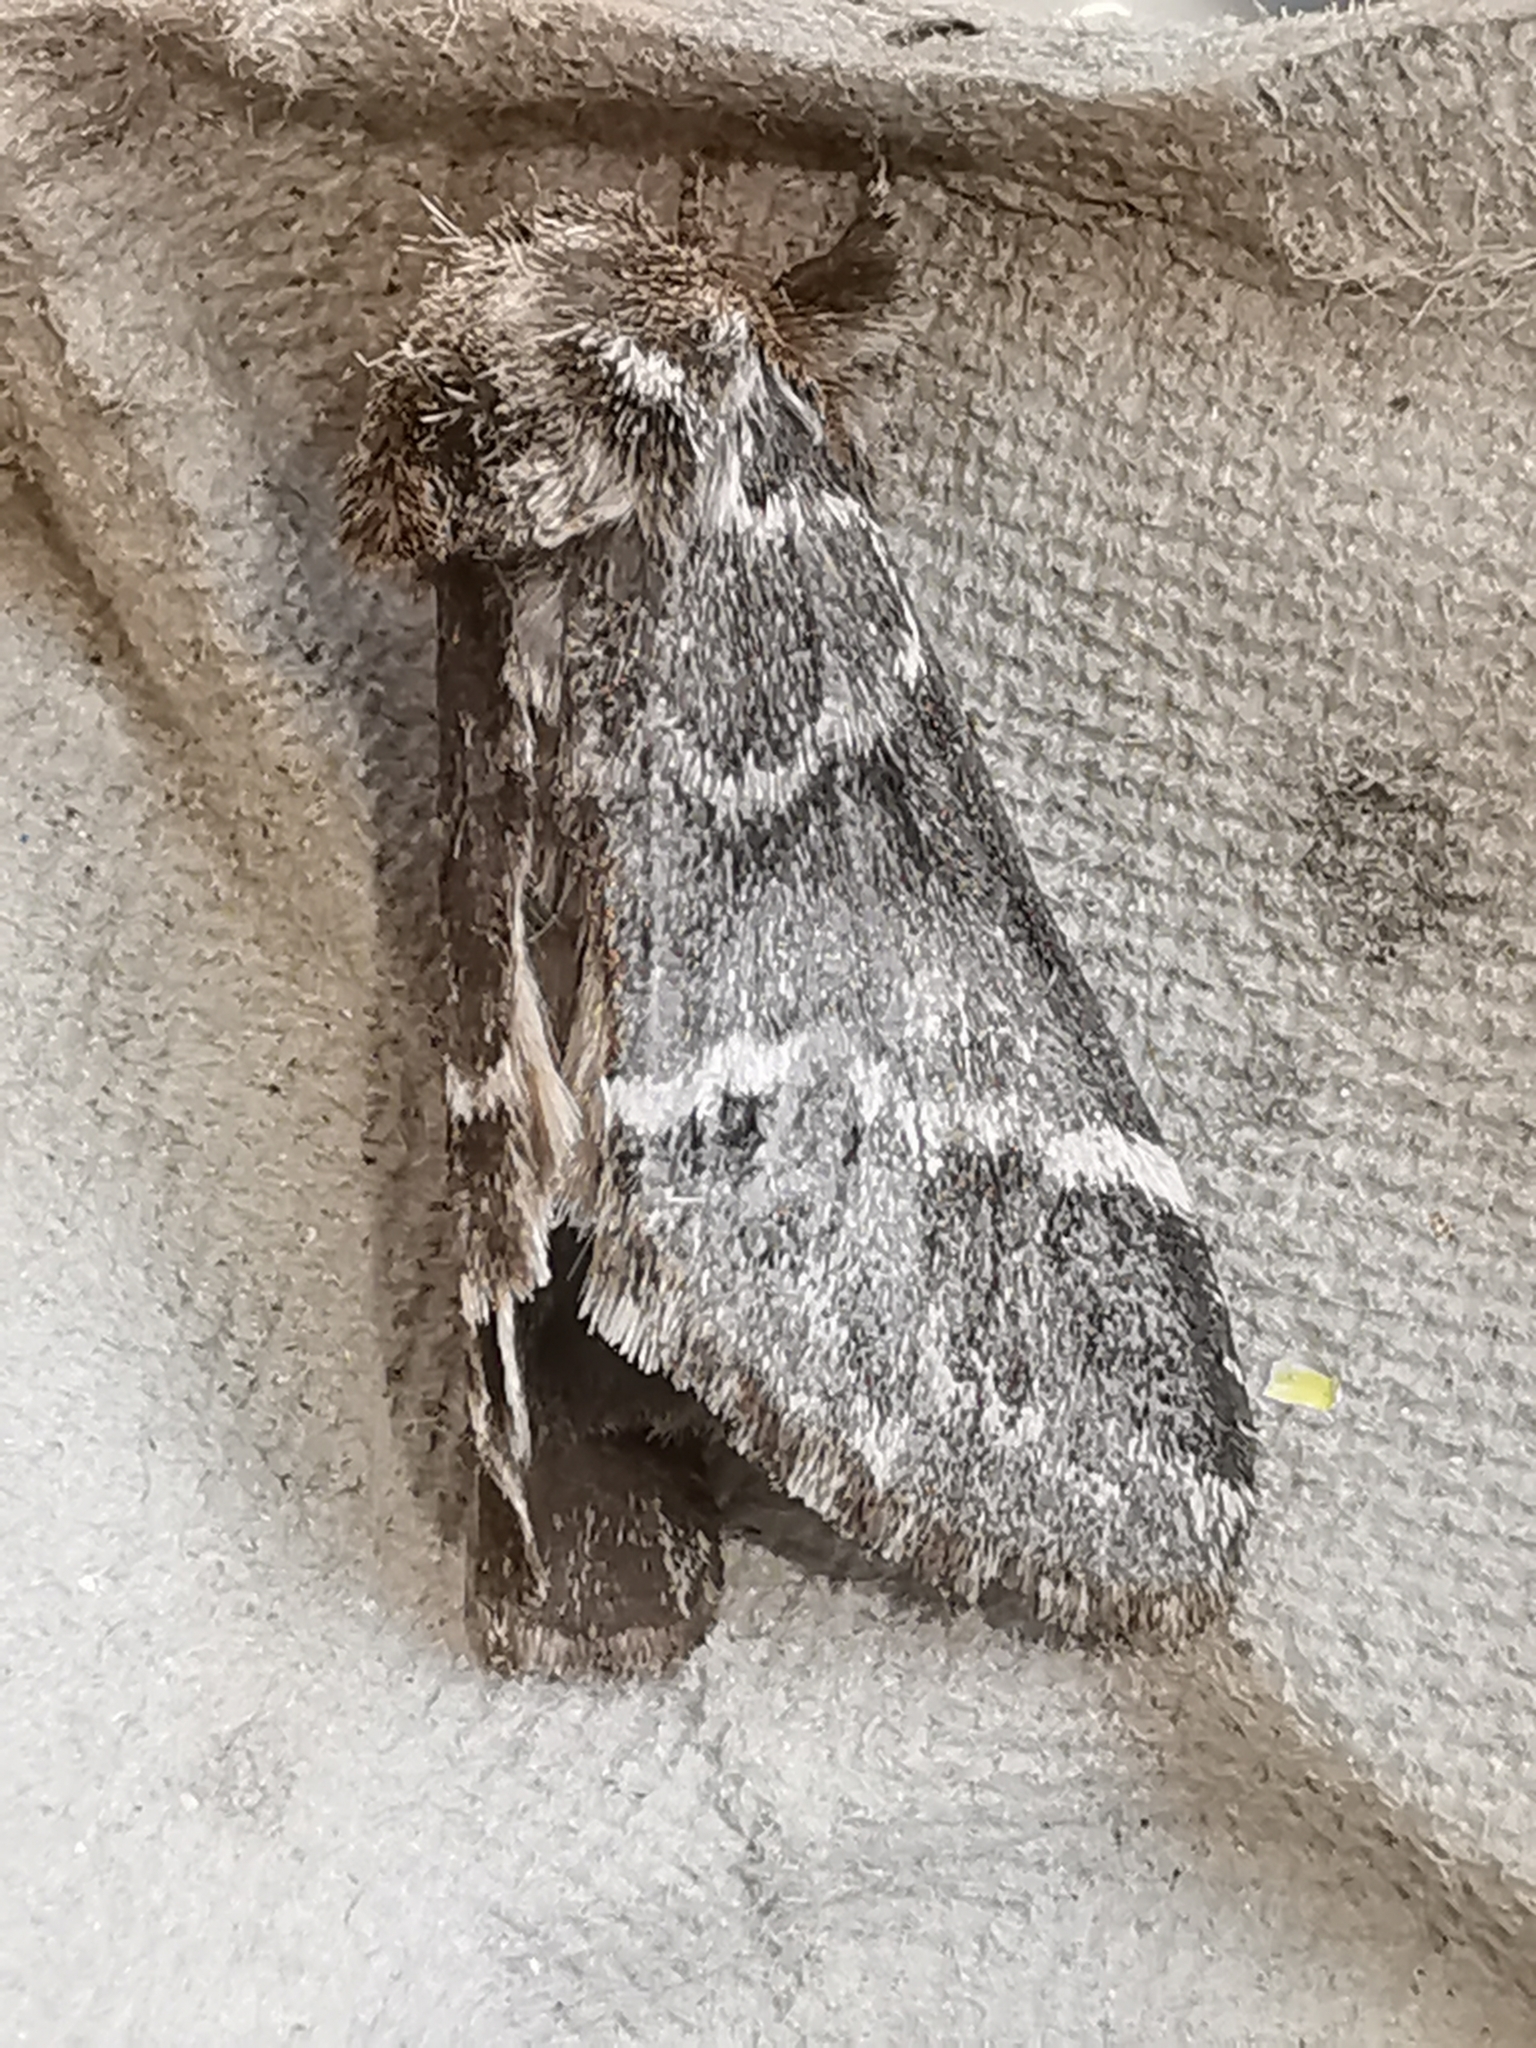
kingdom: Animalia
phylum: Arthropoda
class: Insecta
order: Lepidoptera
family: Notodontidae
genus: Drymonia
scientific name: Drymonia dodonaea
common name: Marbled brown
